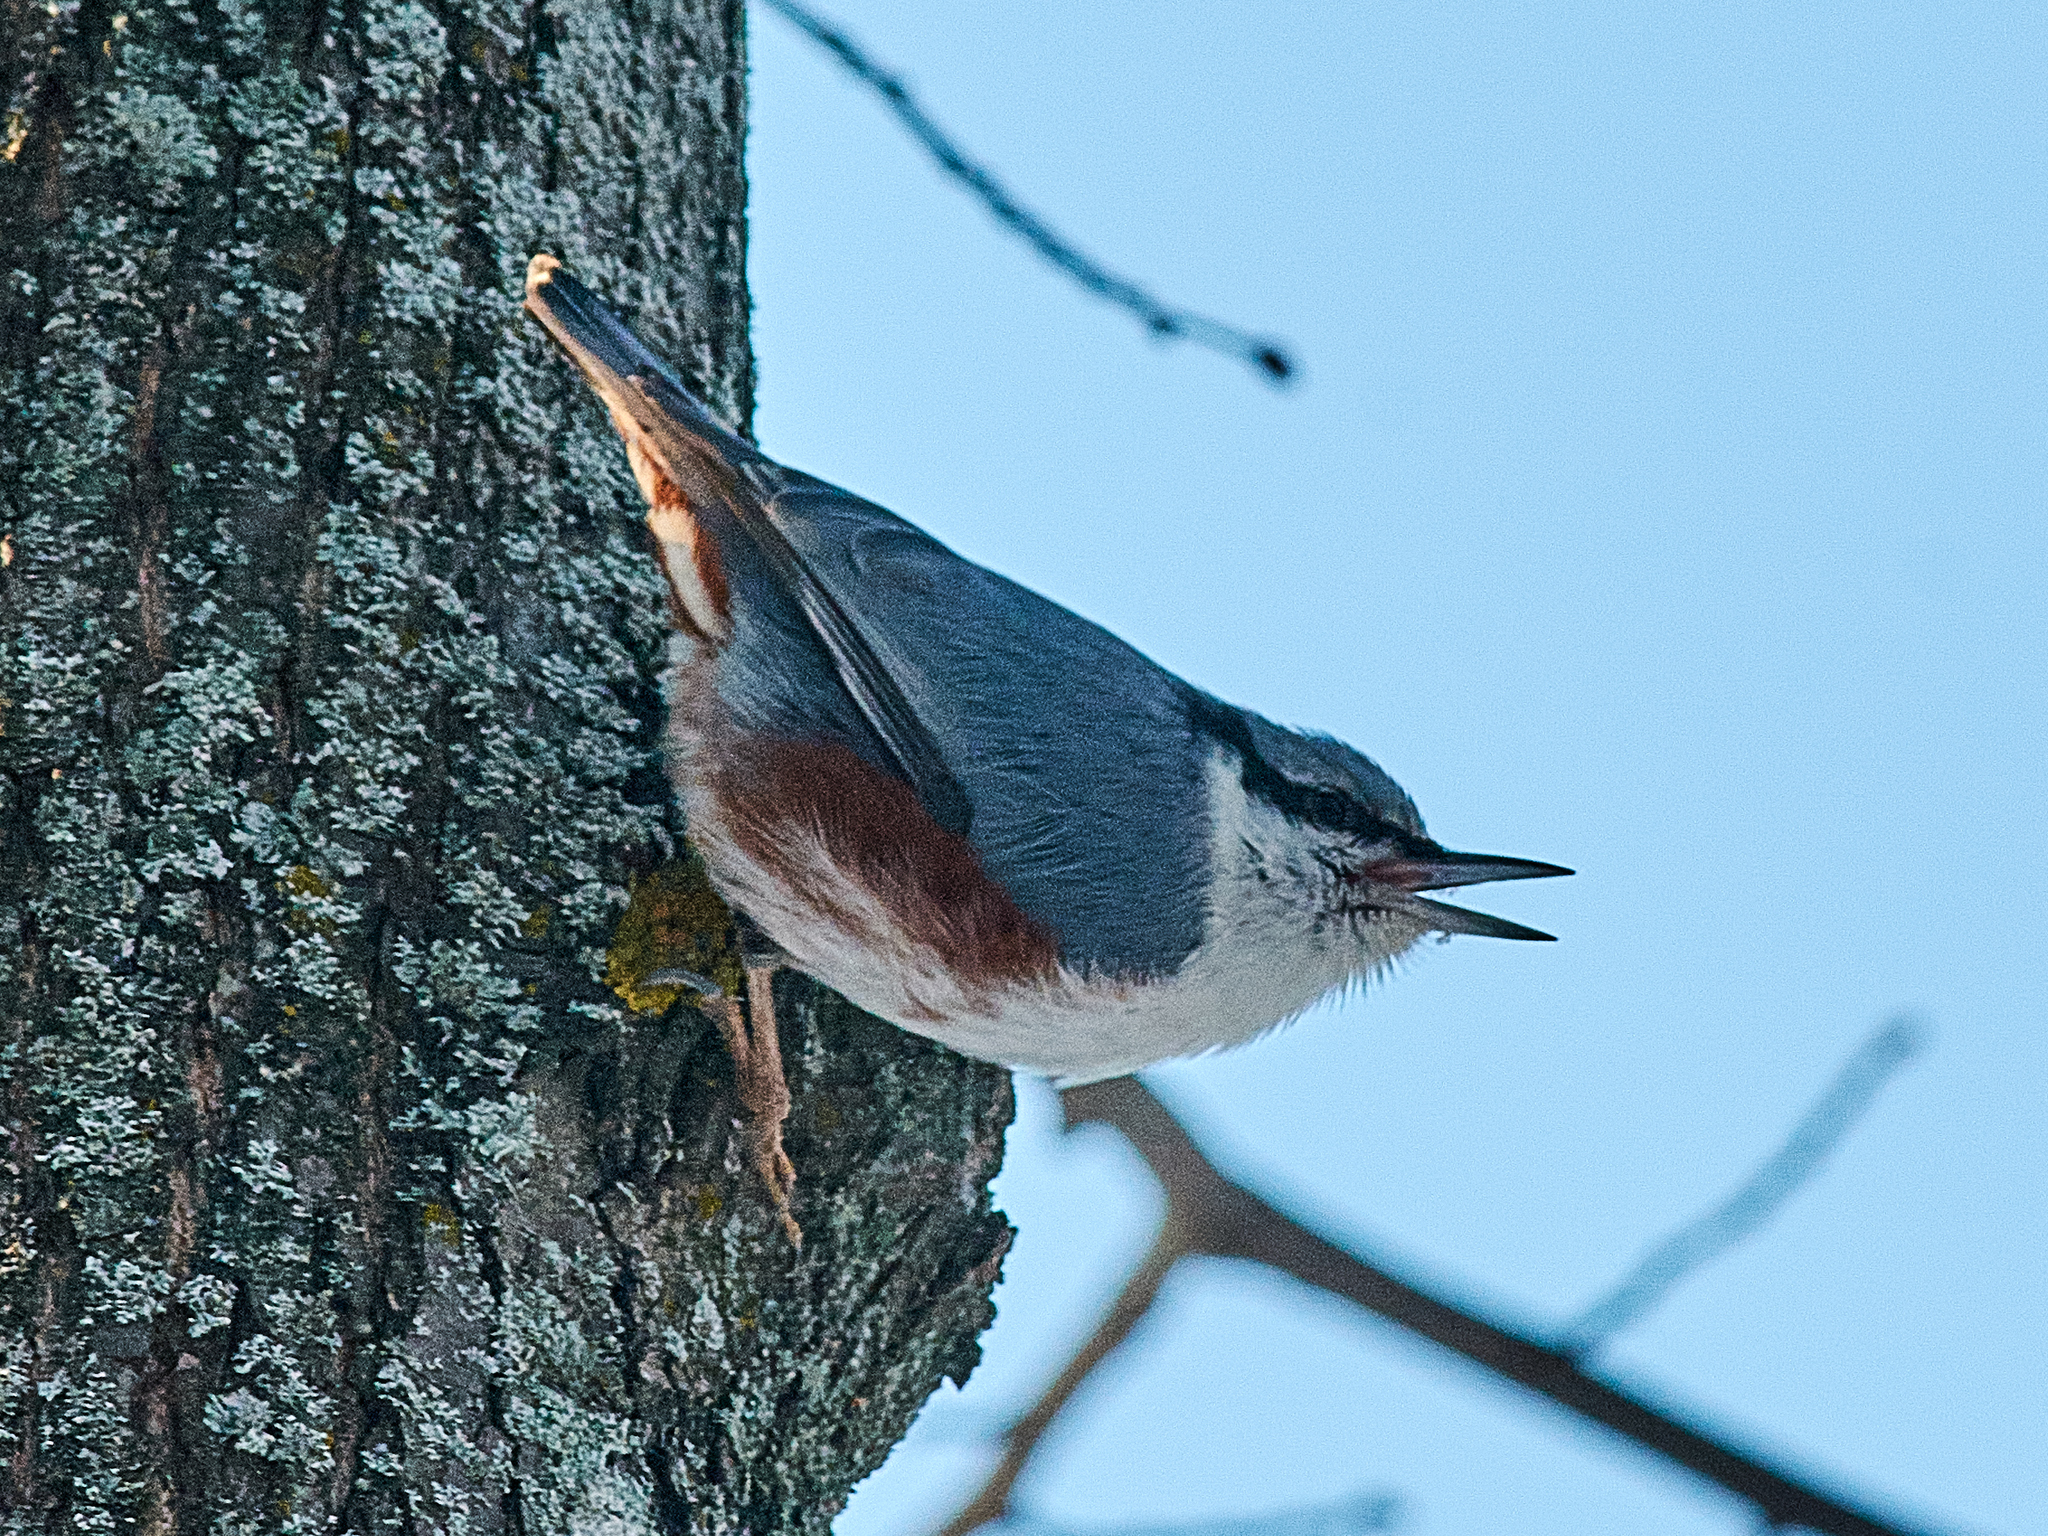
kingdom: Animalia
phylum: Chordata
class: Aves
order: Passeriformes
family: Sittidae
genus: Sitta
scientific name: Sitta europaea
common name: Eurasian nuthatch
